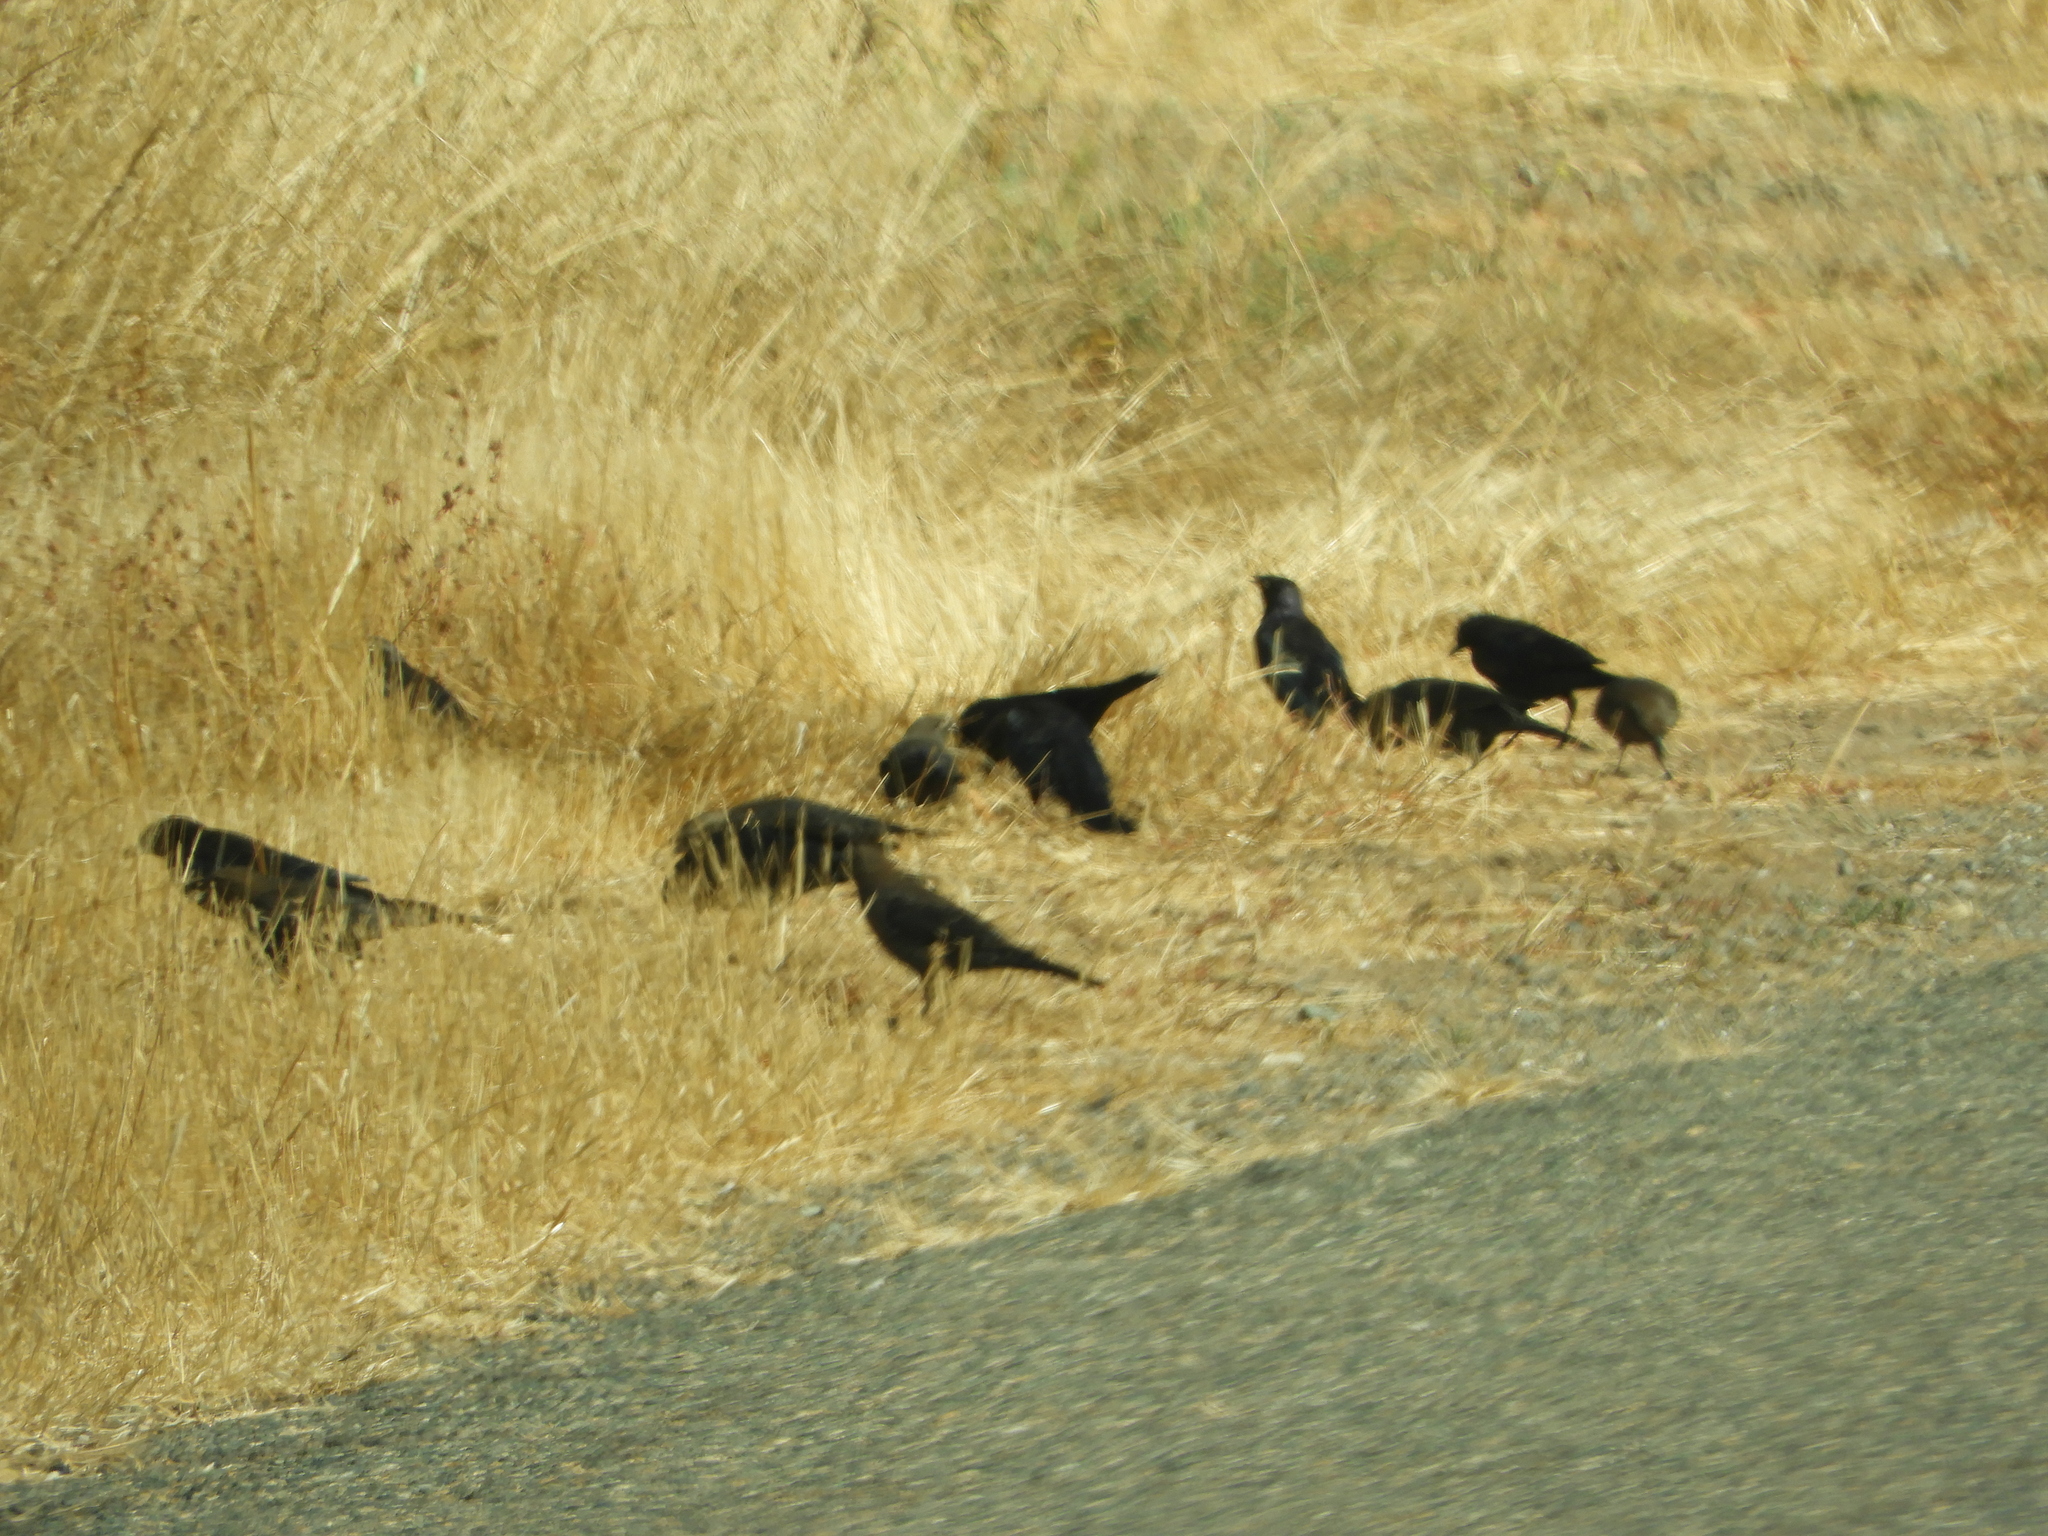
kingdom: Animalia
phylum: Chordata
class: Aves
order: Passeriformes
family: Icteridae
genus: Euphagus
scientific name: Euphagus cyanocephalus
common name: Brewer's blackbird
